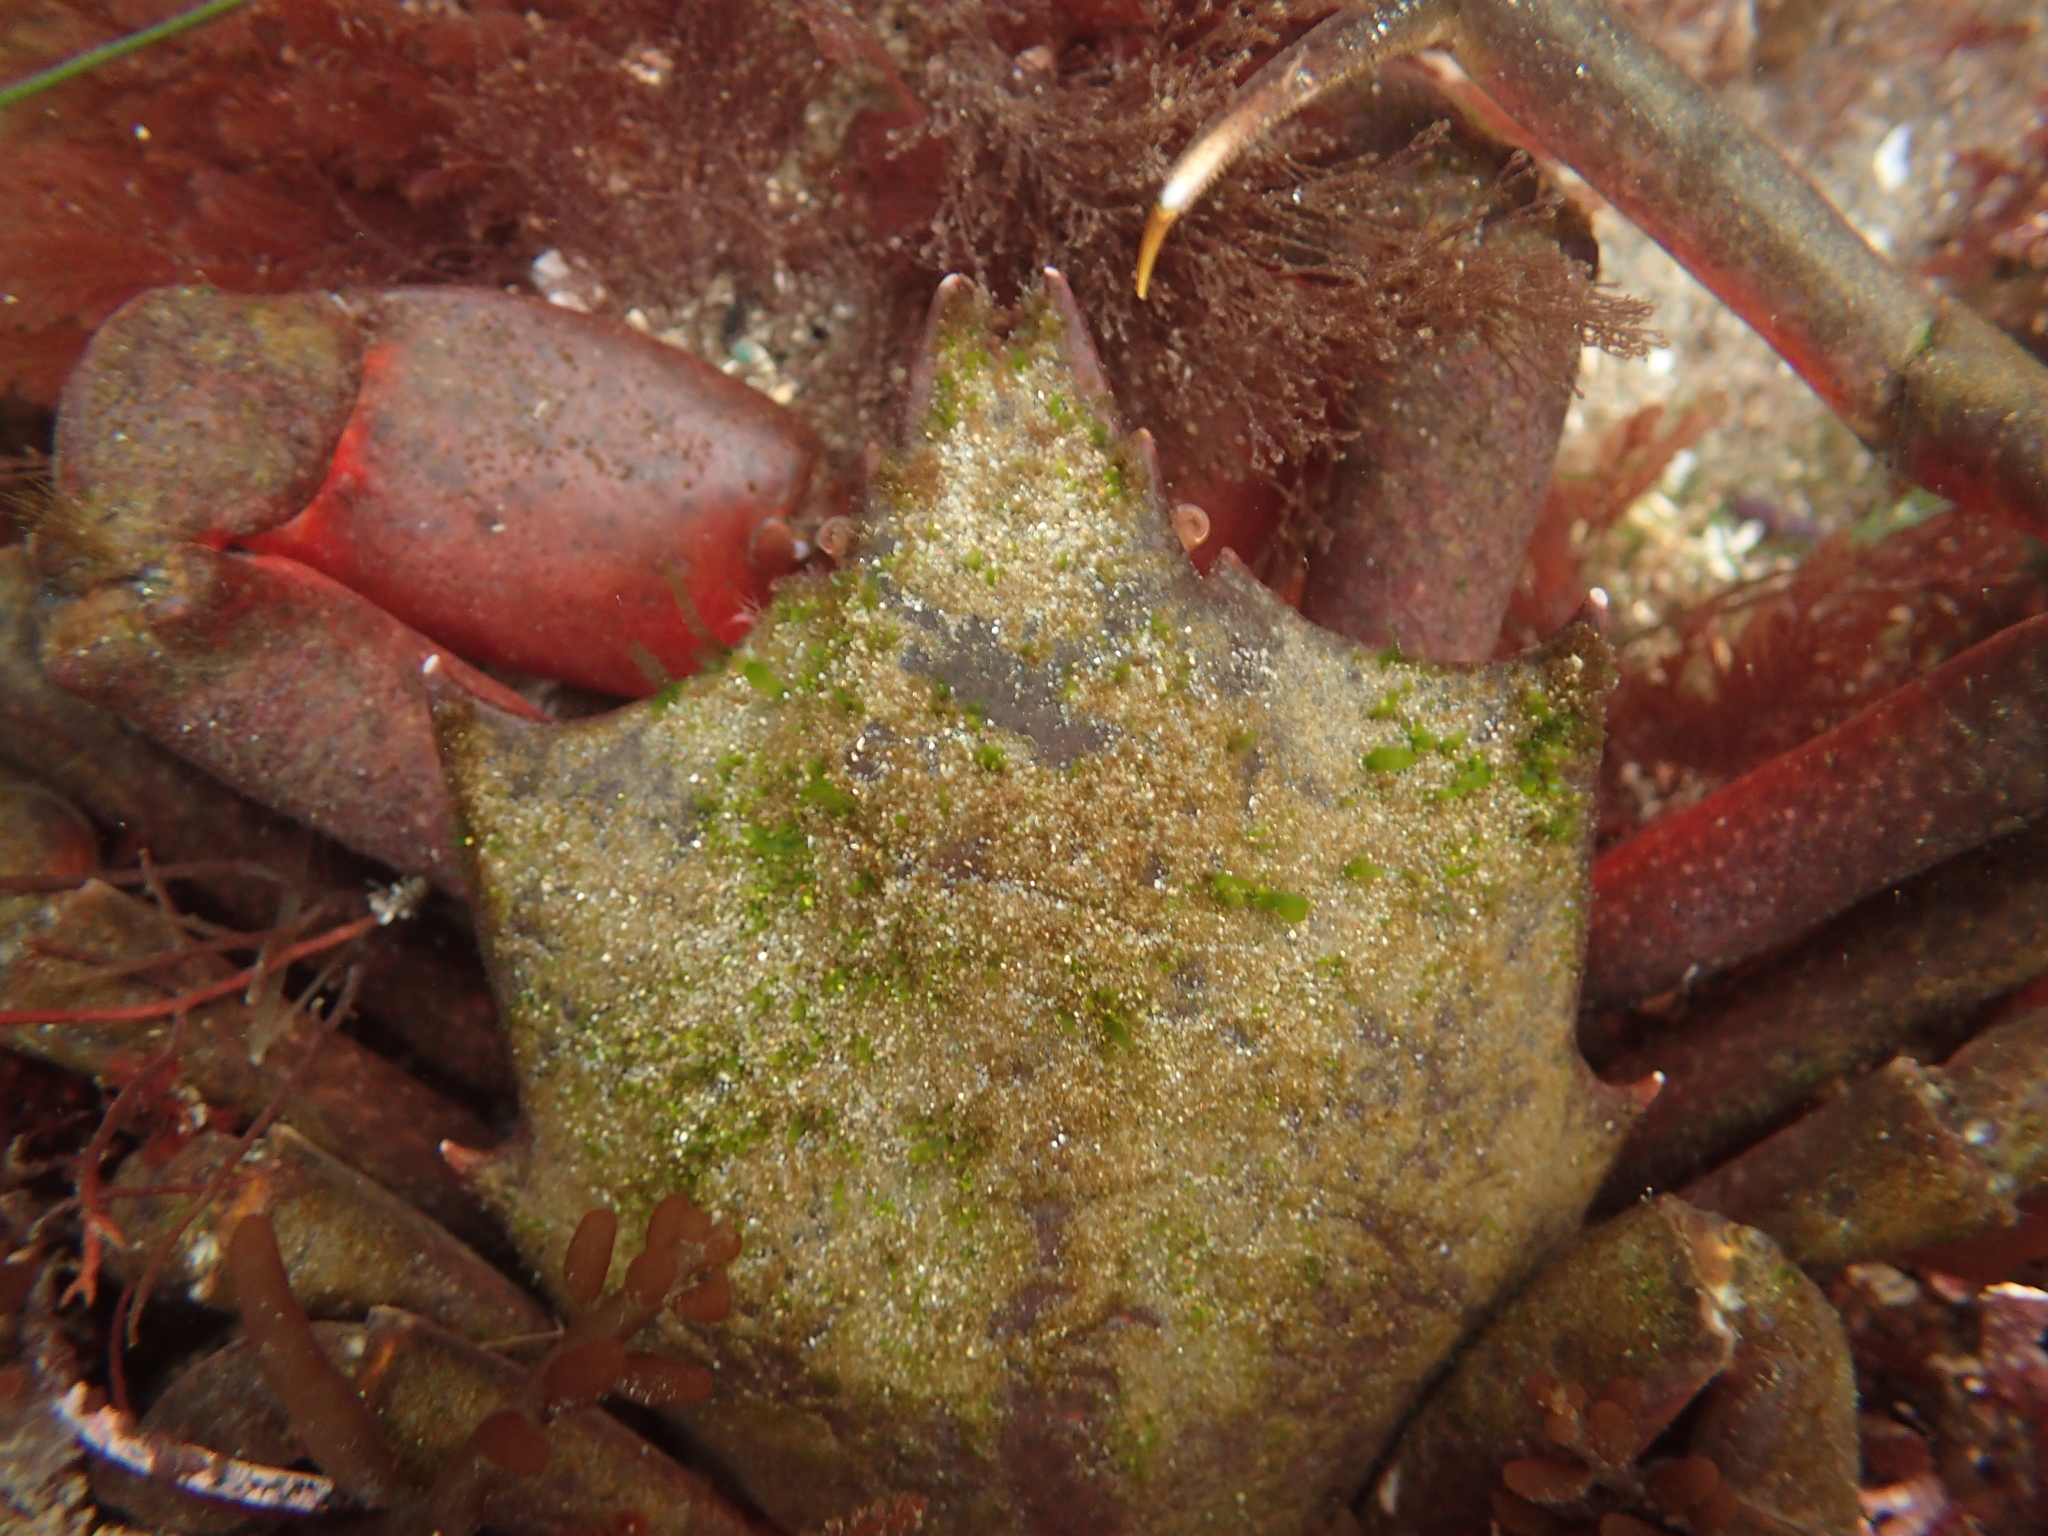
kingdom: Animalia
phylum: Arthropoda
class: Malacostraca
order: Decapoda
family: Epialtidae
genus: Pugettia
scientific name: Pugettia producta
